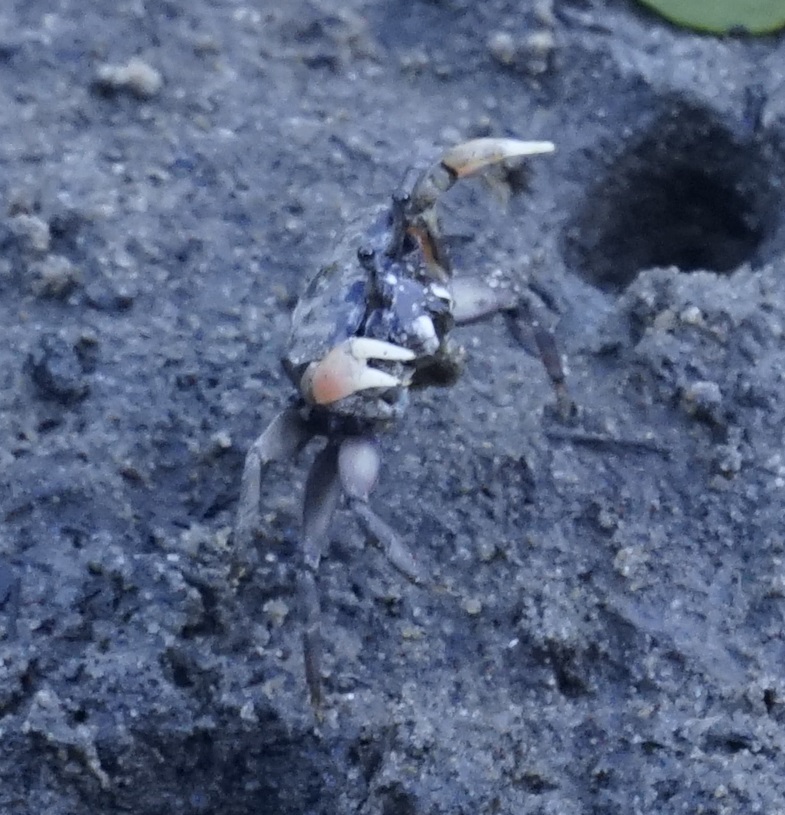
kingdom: Animalia
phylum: Arthropoda
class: Malacostraca
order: Decapoda
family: Heloeciidae
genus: Heloecius
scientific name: Heloecius cordiformis
